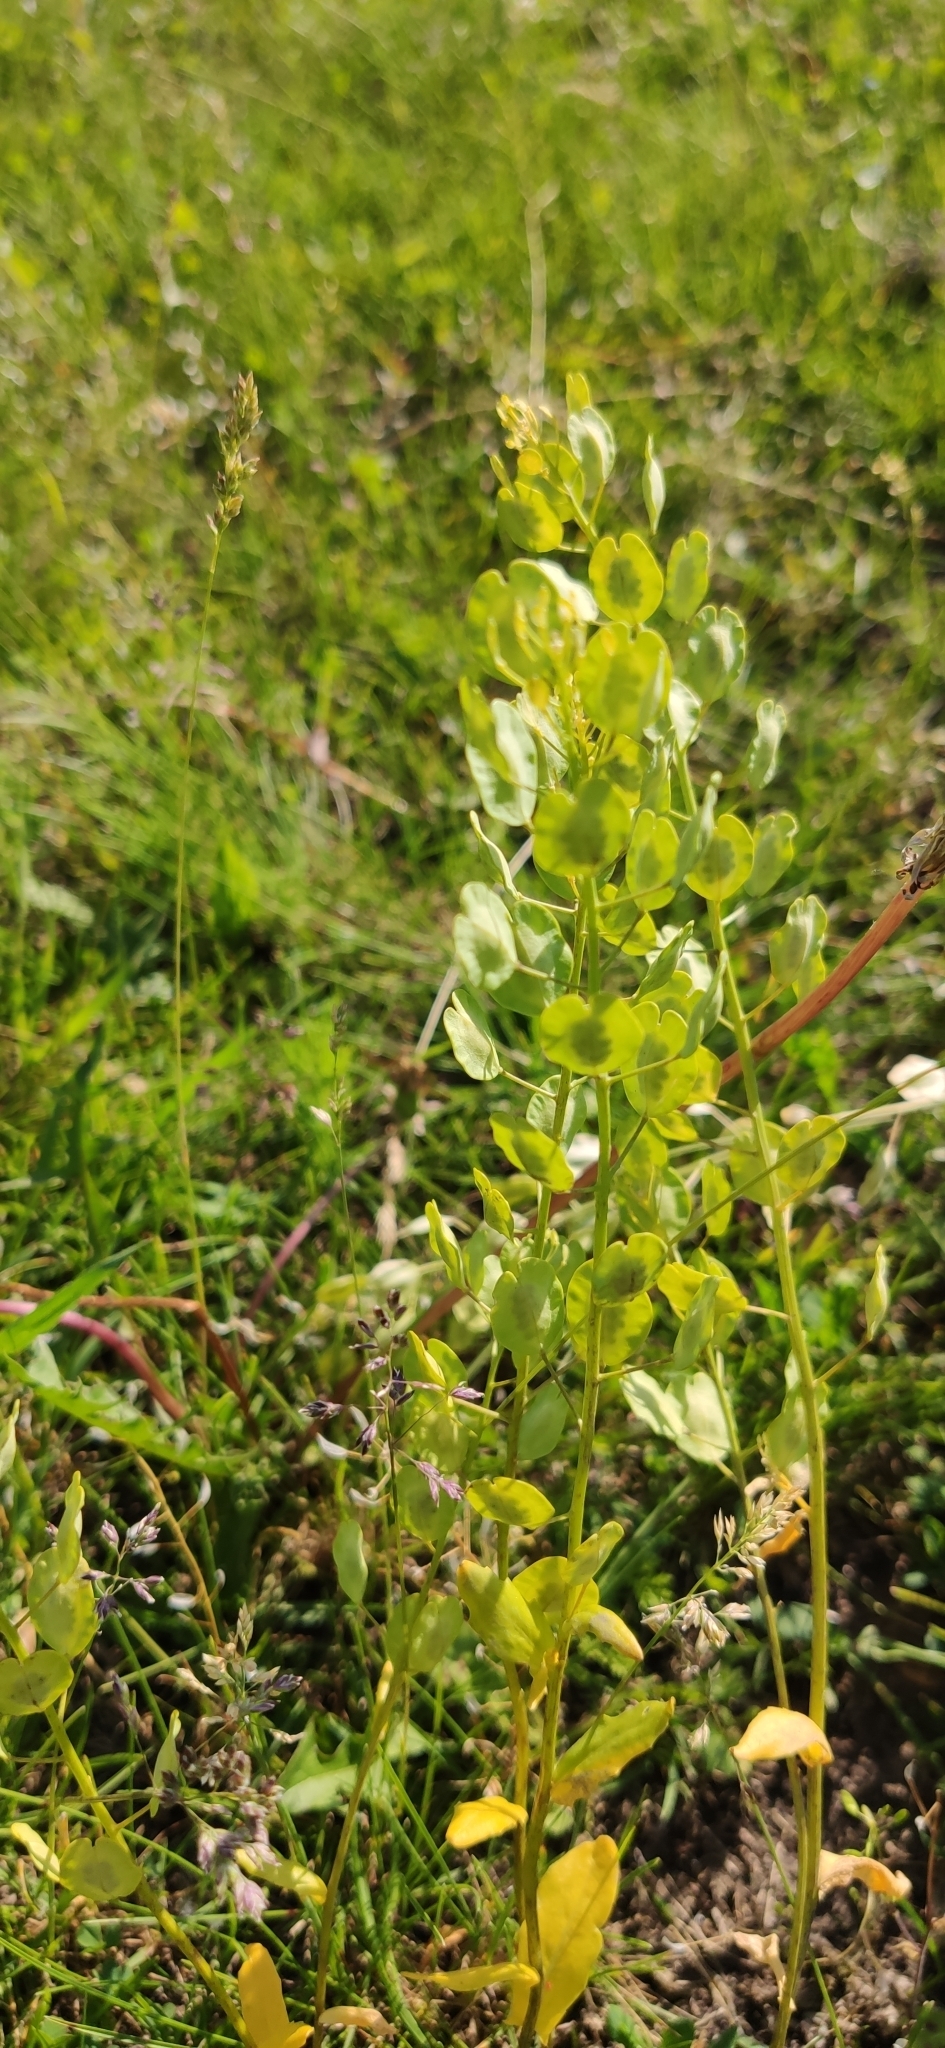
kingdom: Plantae
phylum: Tracheophyta
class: Magnoliopsida
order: Brassicales
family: Brassicaceae
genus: Thlaspi
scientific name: Thlaspi arvense
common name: Field pennycress
